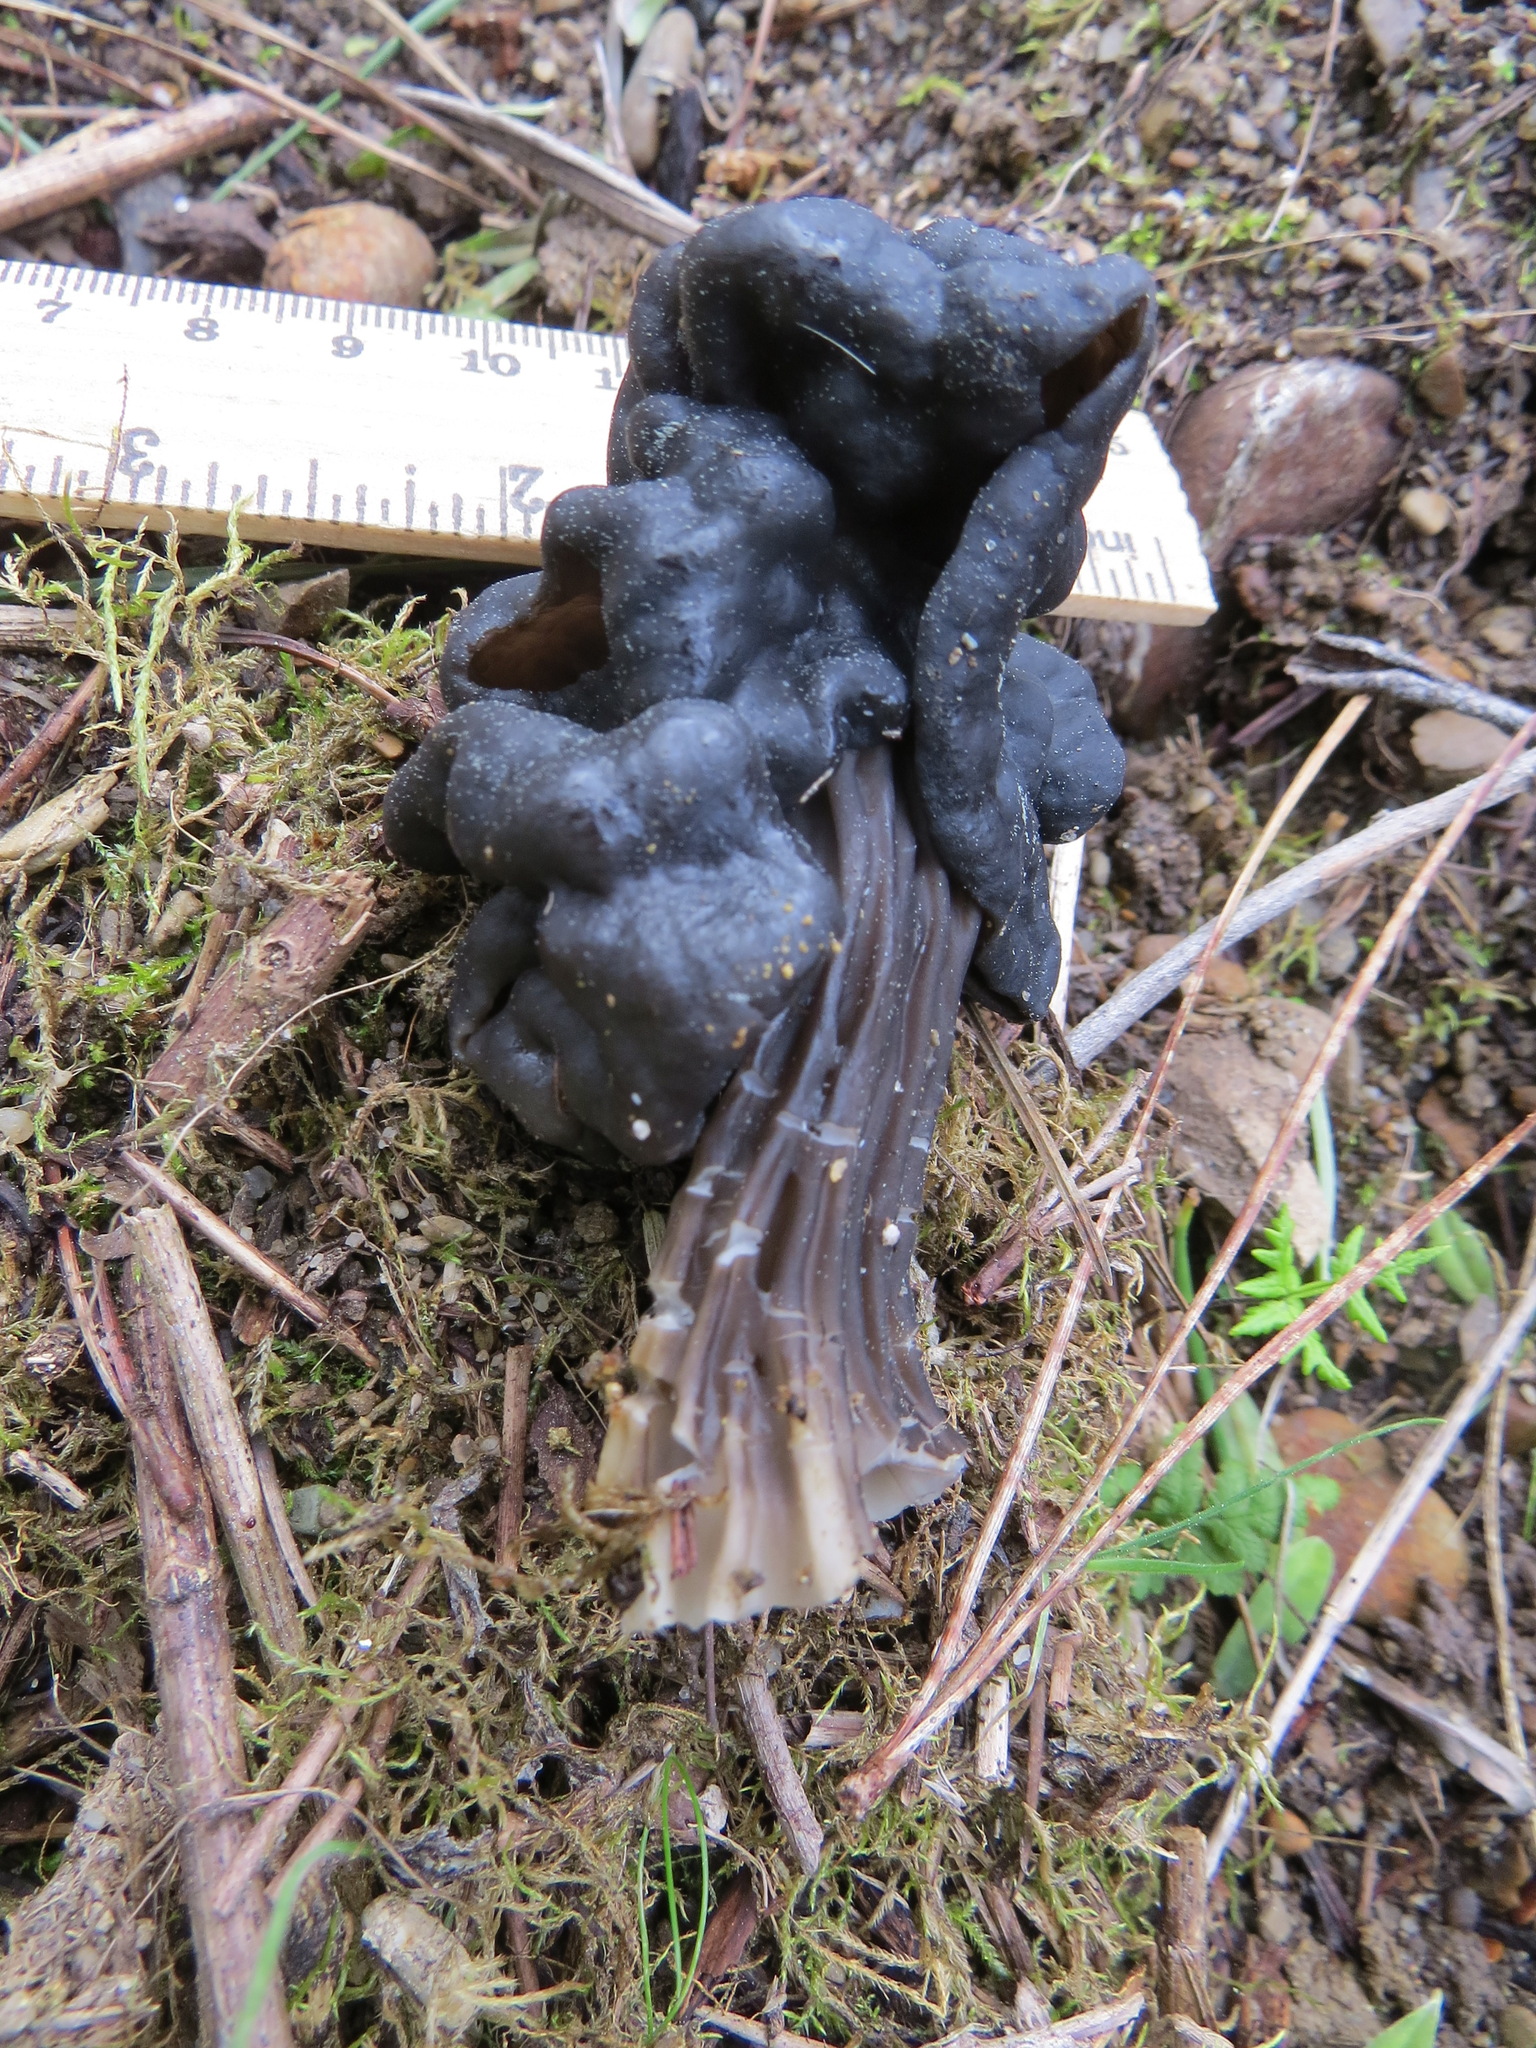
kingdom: Fungi
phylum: Ascomycota
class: Pezizomycetes
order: Pezizales
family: Helvellaceae
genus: Helvella
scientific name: Helvella vespertina
